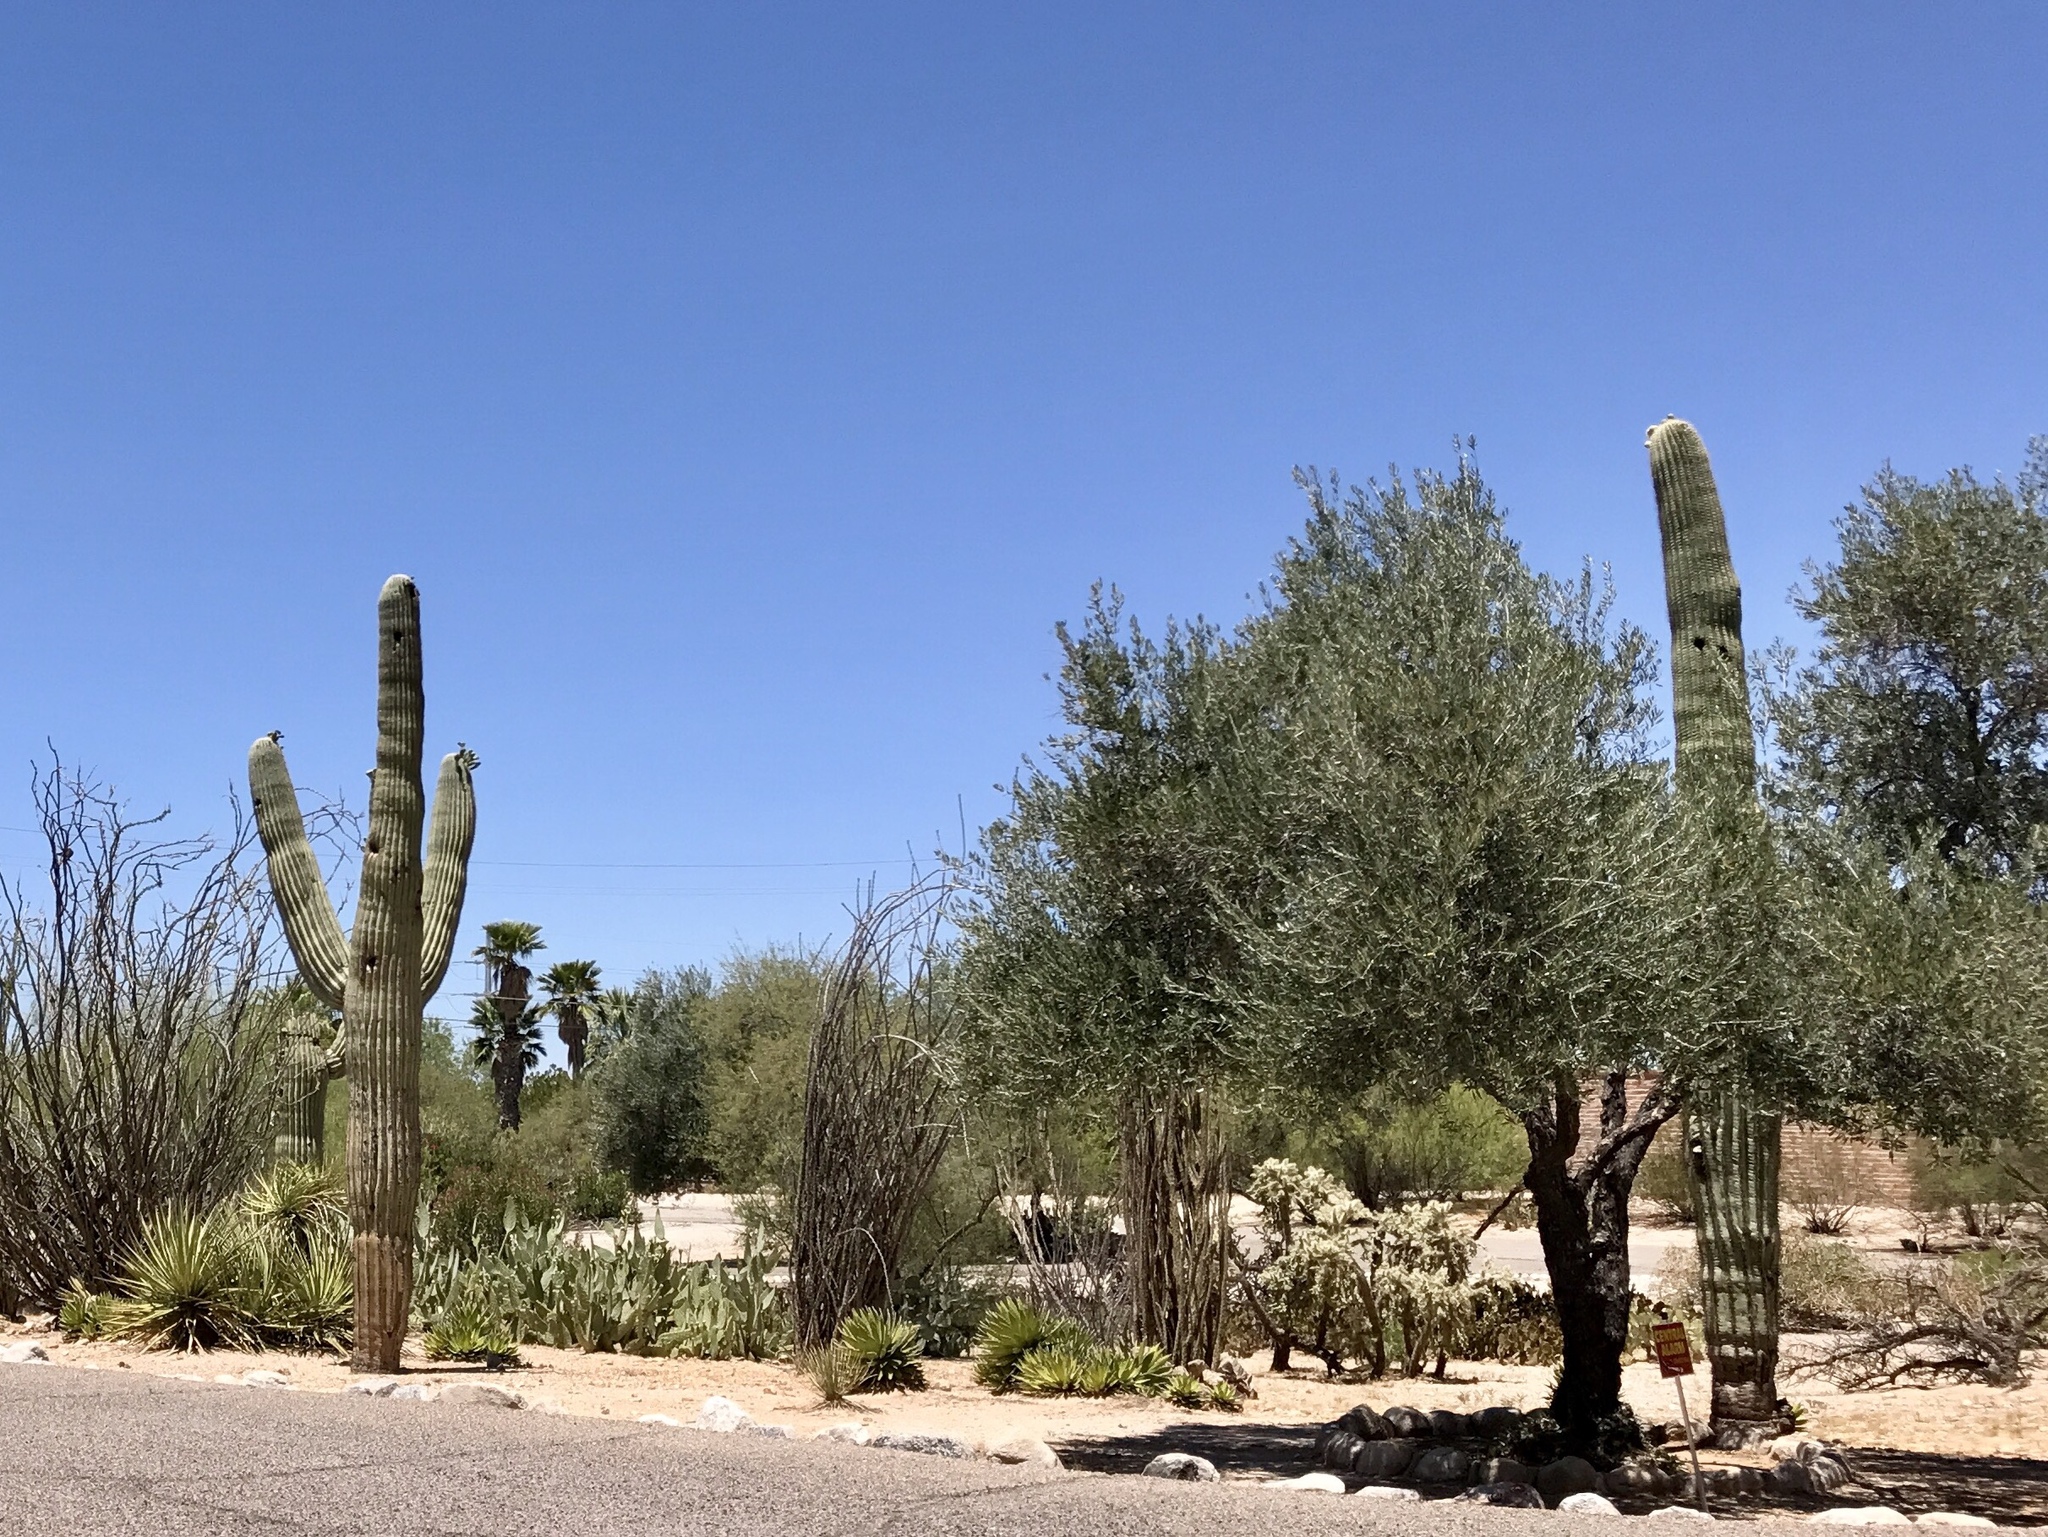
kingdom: Plantae
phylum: Tracheophyta
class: Magnoliopsida
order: Caryophyllales
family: Cactaceae
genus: Carnegiea
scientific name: Carnegiea gigantea
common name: Saguaro
